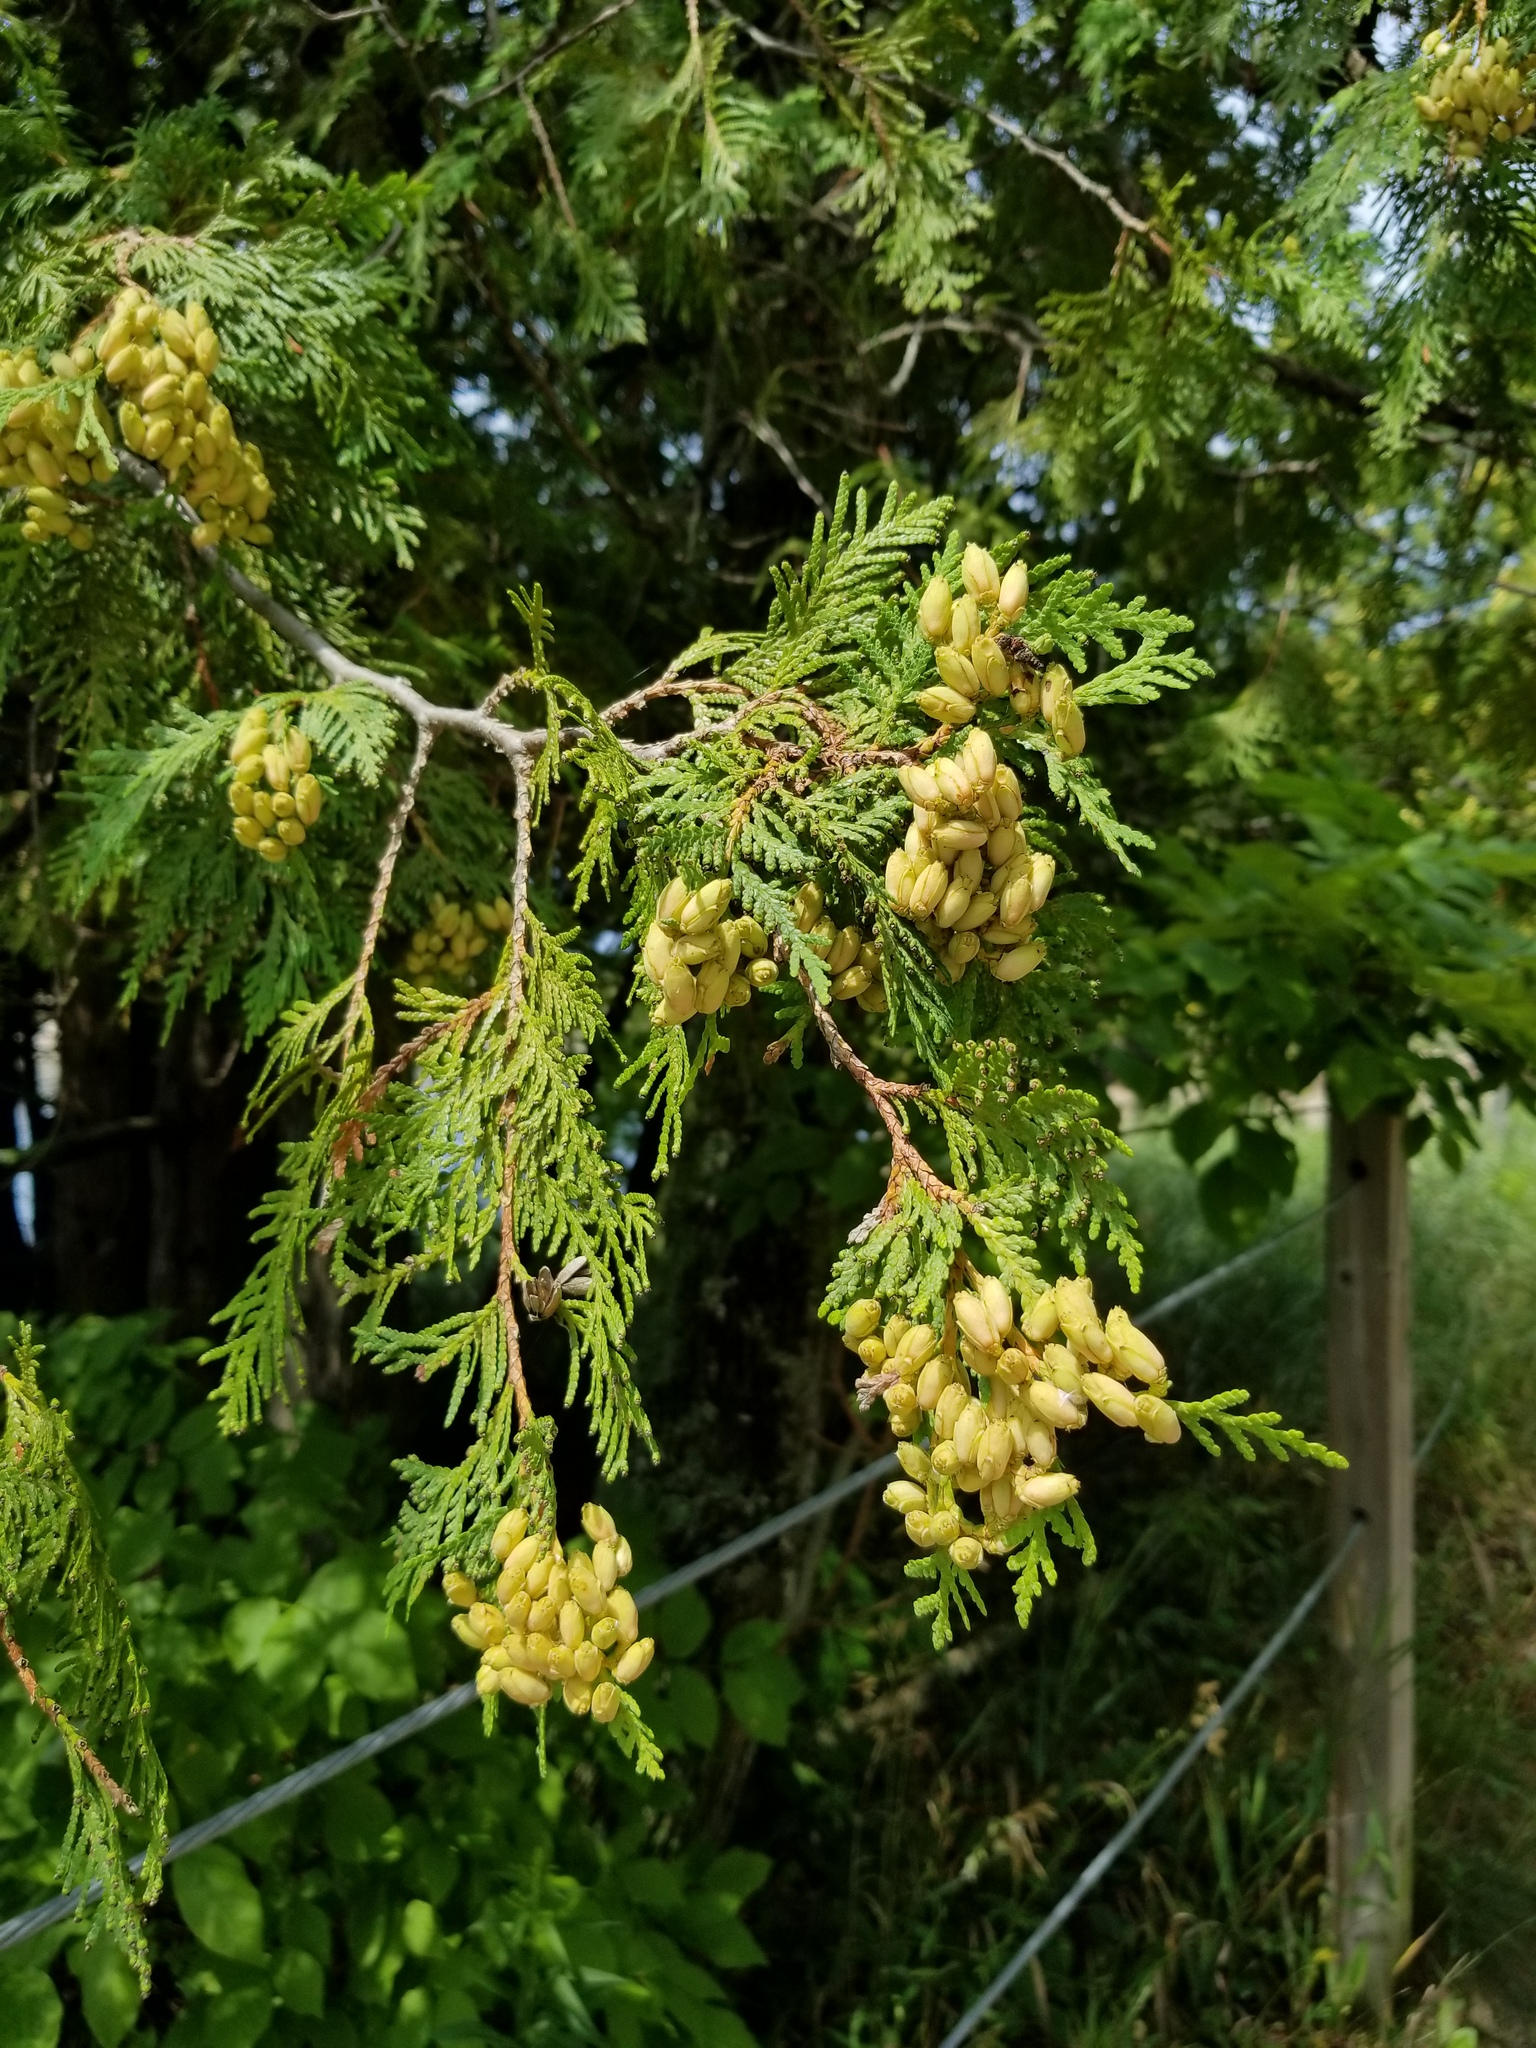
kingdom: Plantae
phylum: Tracheophyta
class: Pinopsida
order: Pinales
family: Cupressaceae
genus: Thuja
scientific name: Thuja occidentalis
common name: Northern white-cedar
